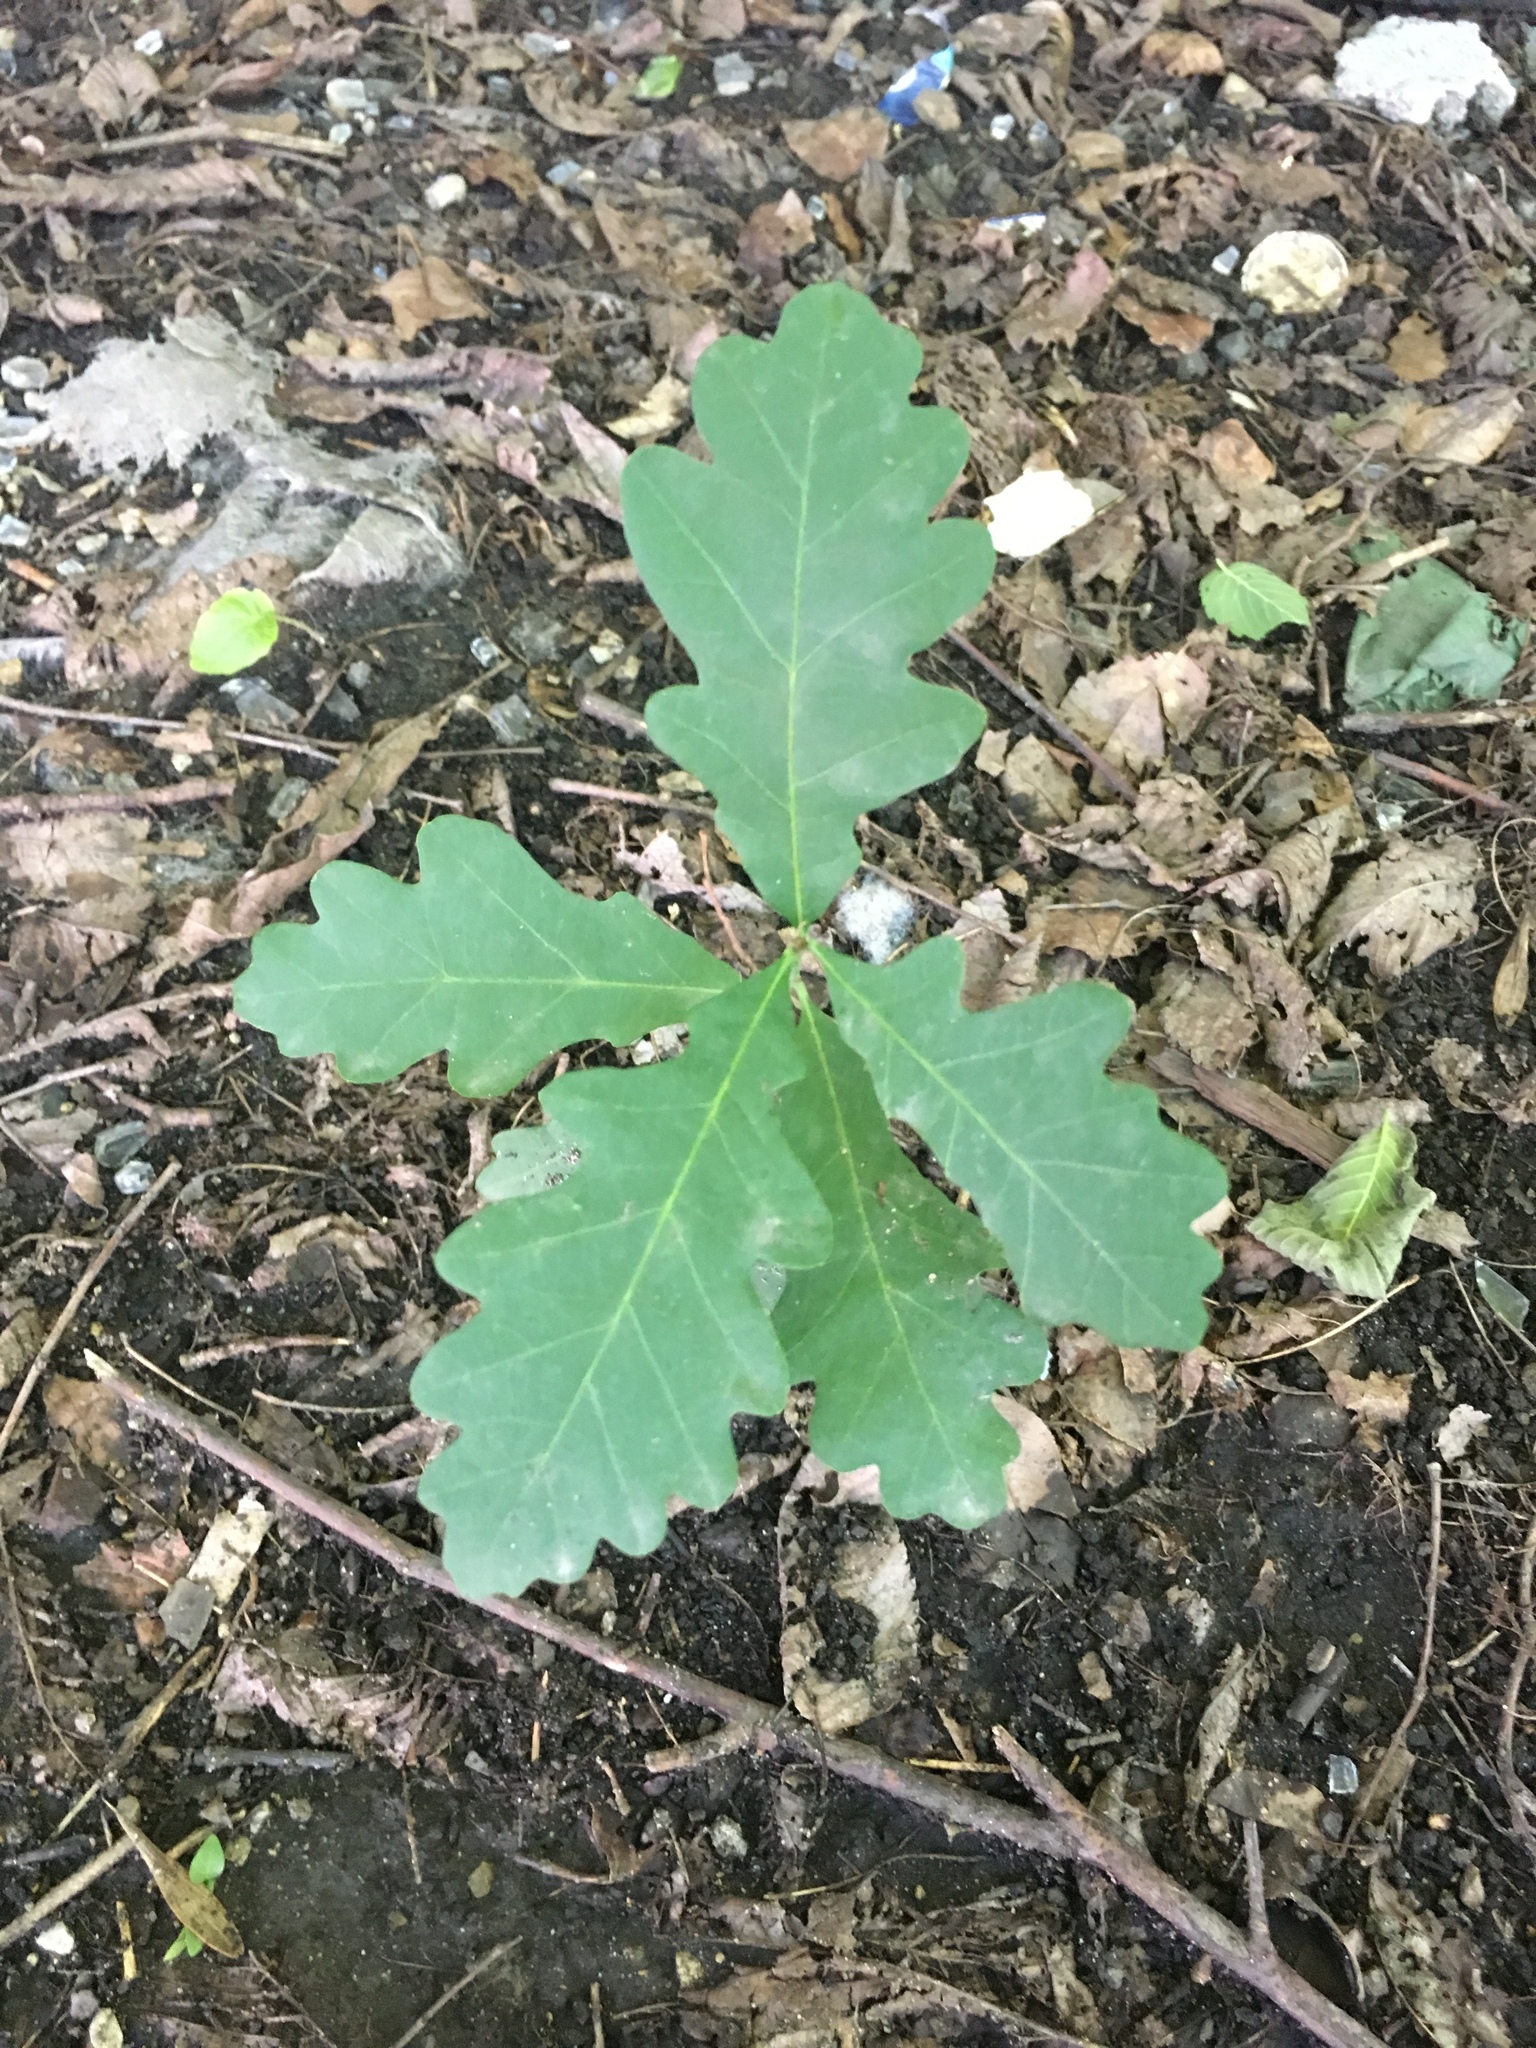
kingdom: Plantae
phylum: Tracheophyta
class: Magnoliopsida
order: Fagales
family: Fagaceae
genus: Quercus
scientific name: Quercus alba
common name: White oak
